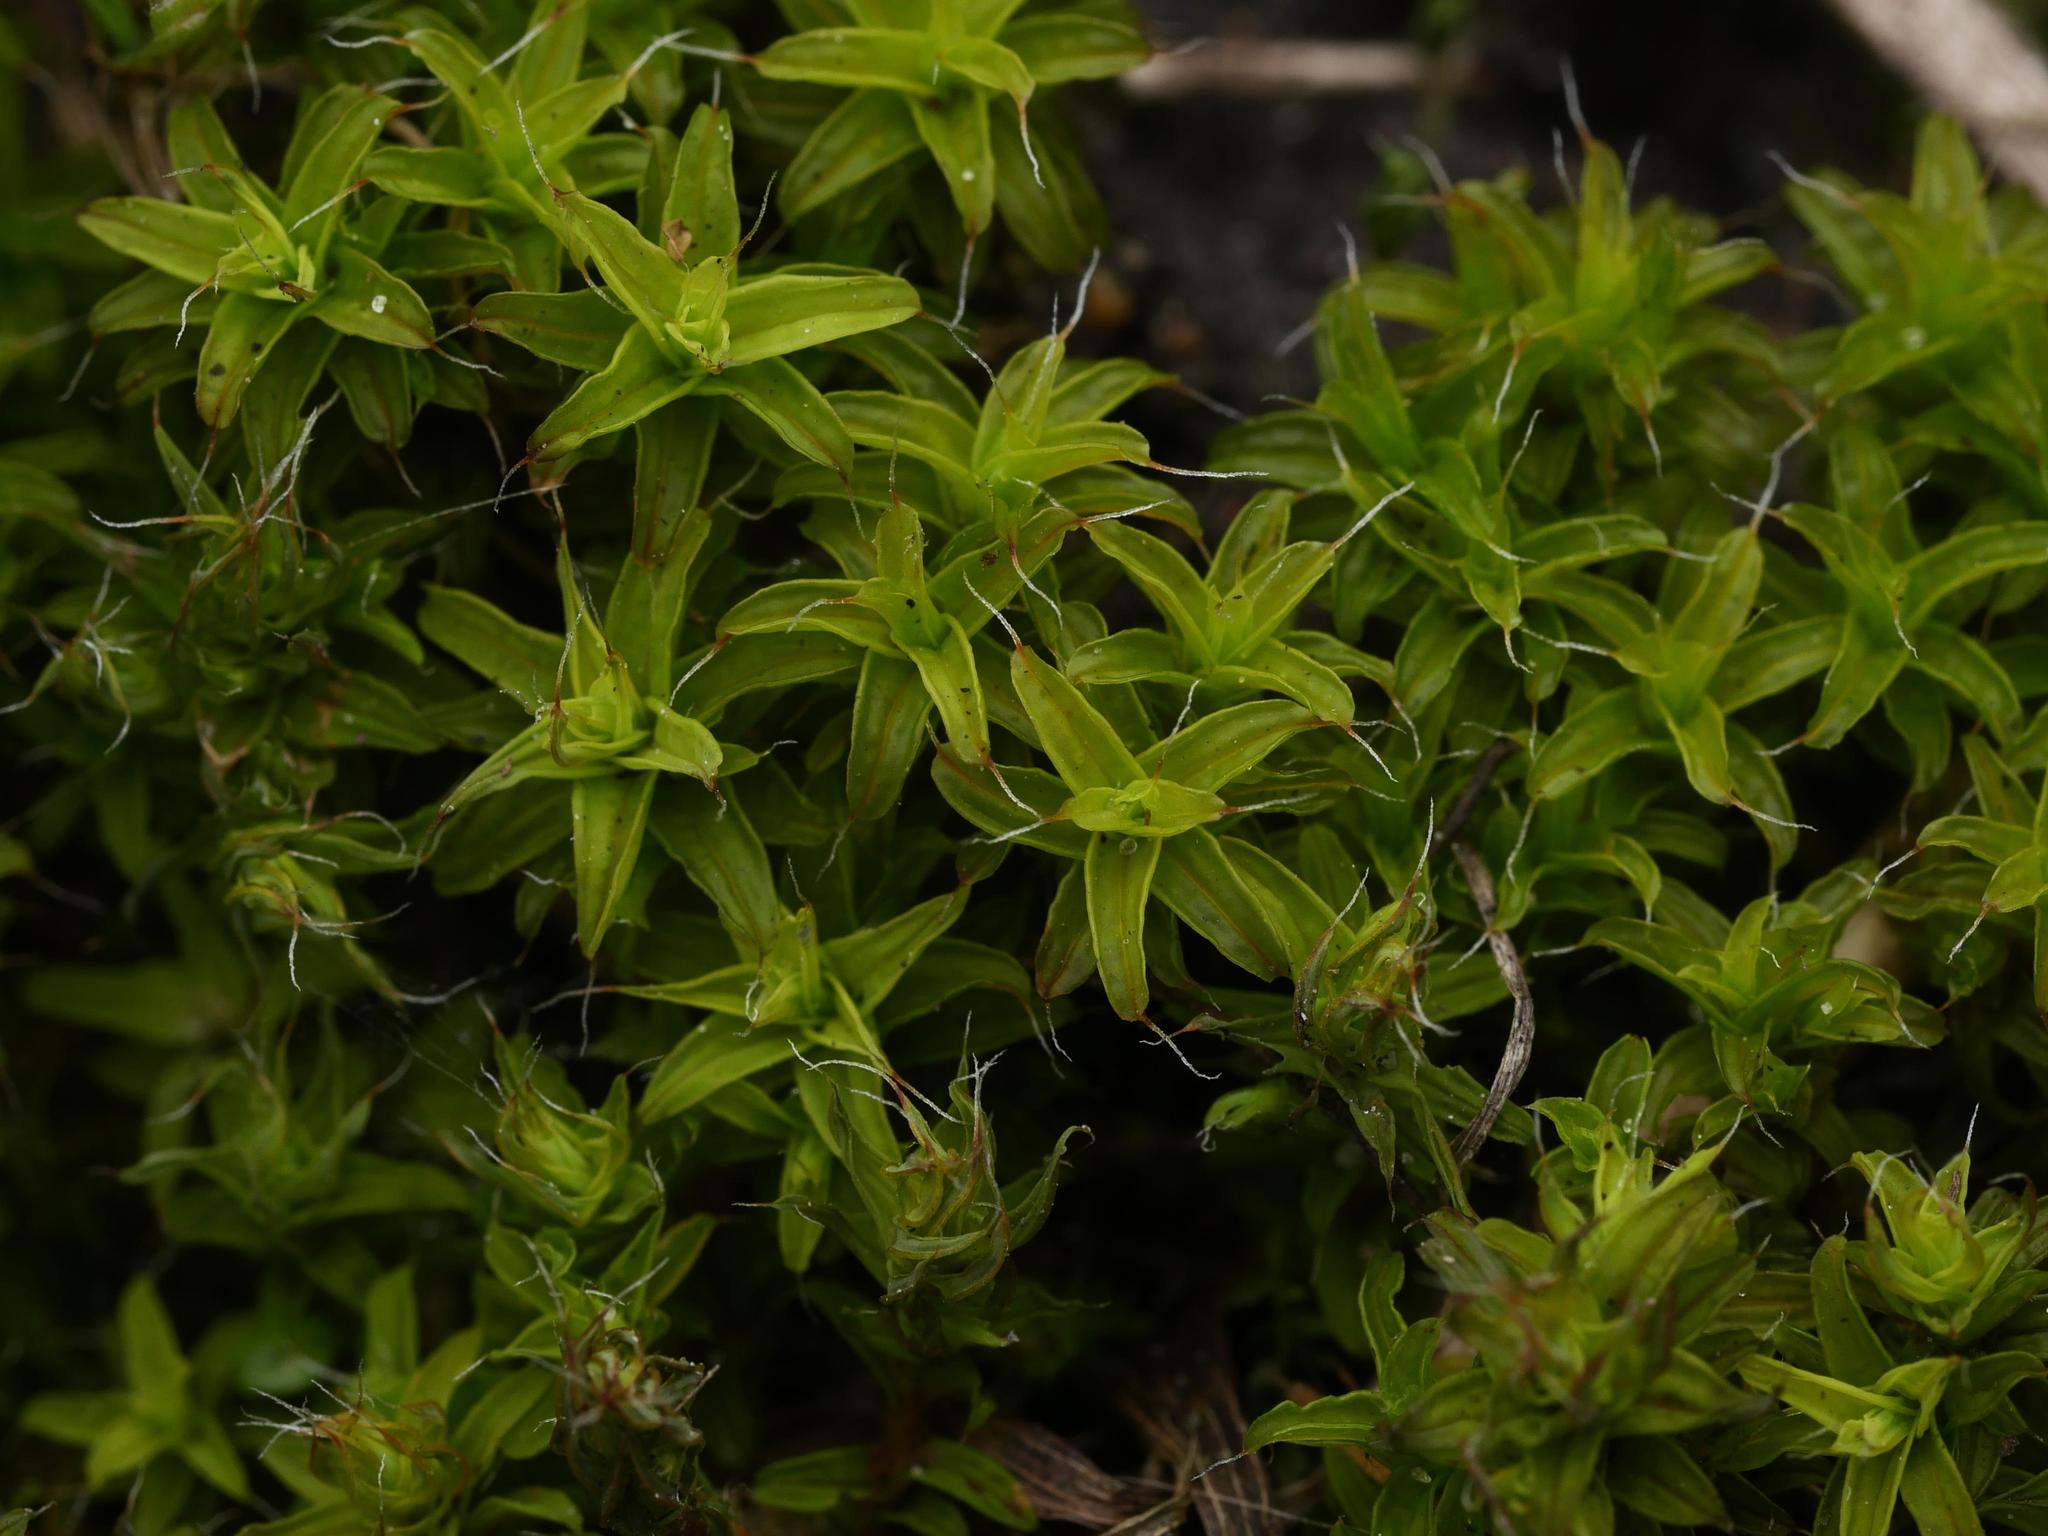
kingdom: Plantae
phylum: Bryophyta
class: Bryopsida
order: Pottiales
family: Pottiaceae
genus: Syntrichia
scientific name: Syntrichia ruralis
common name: Sidewalk screw moss
